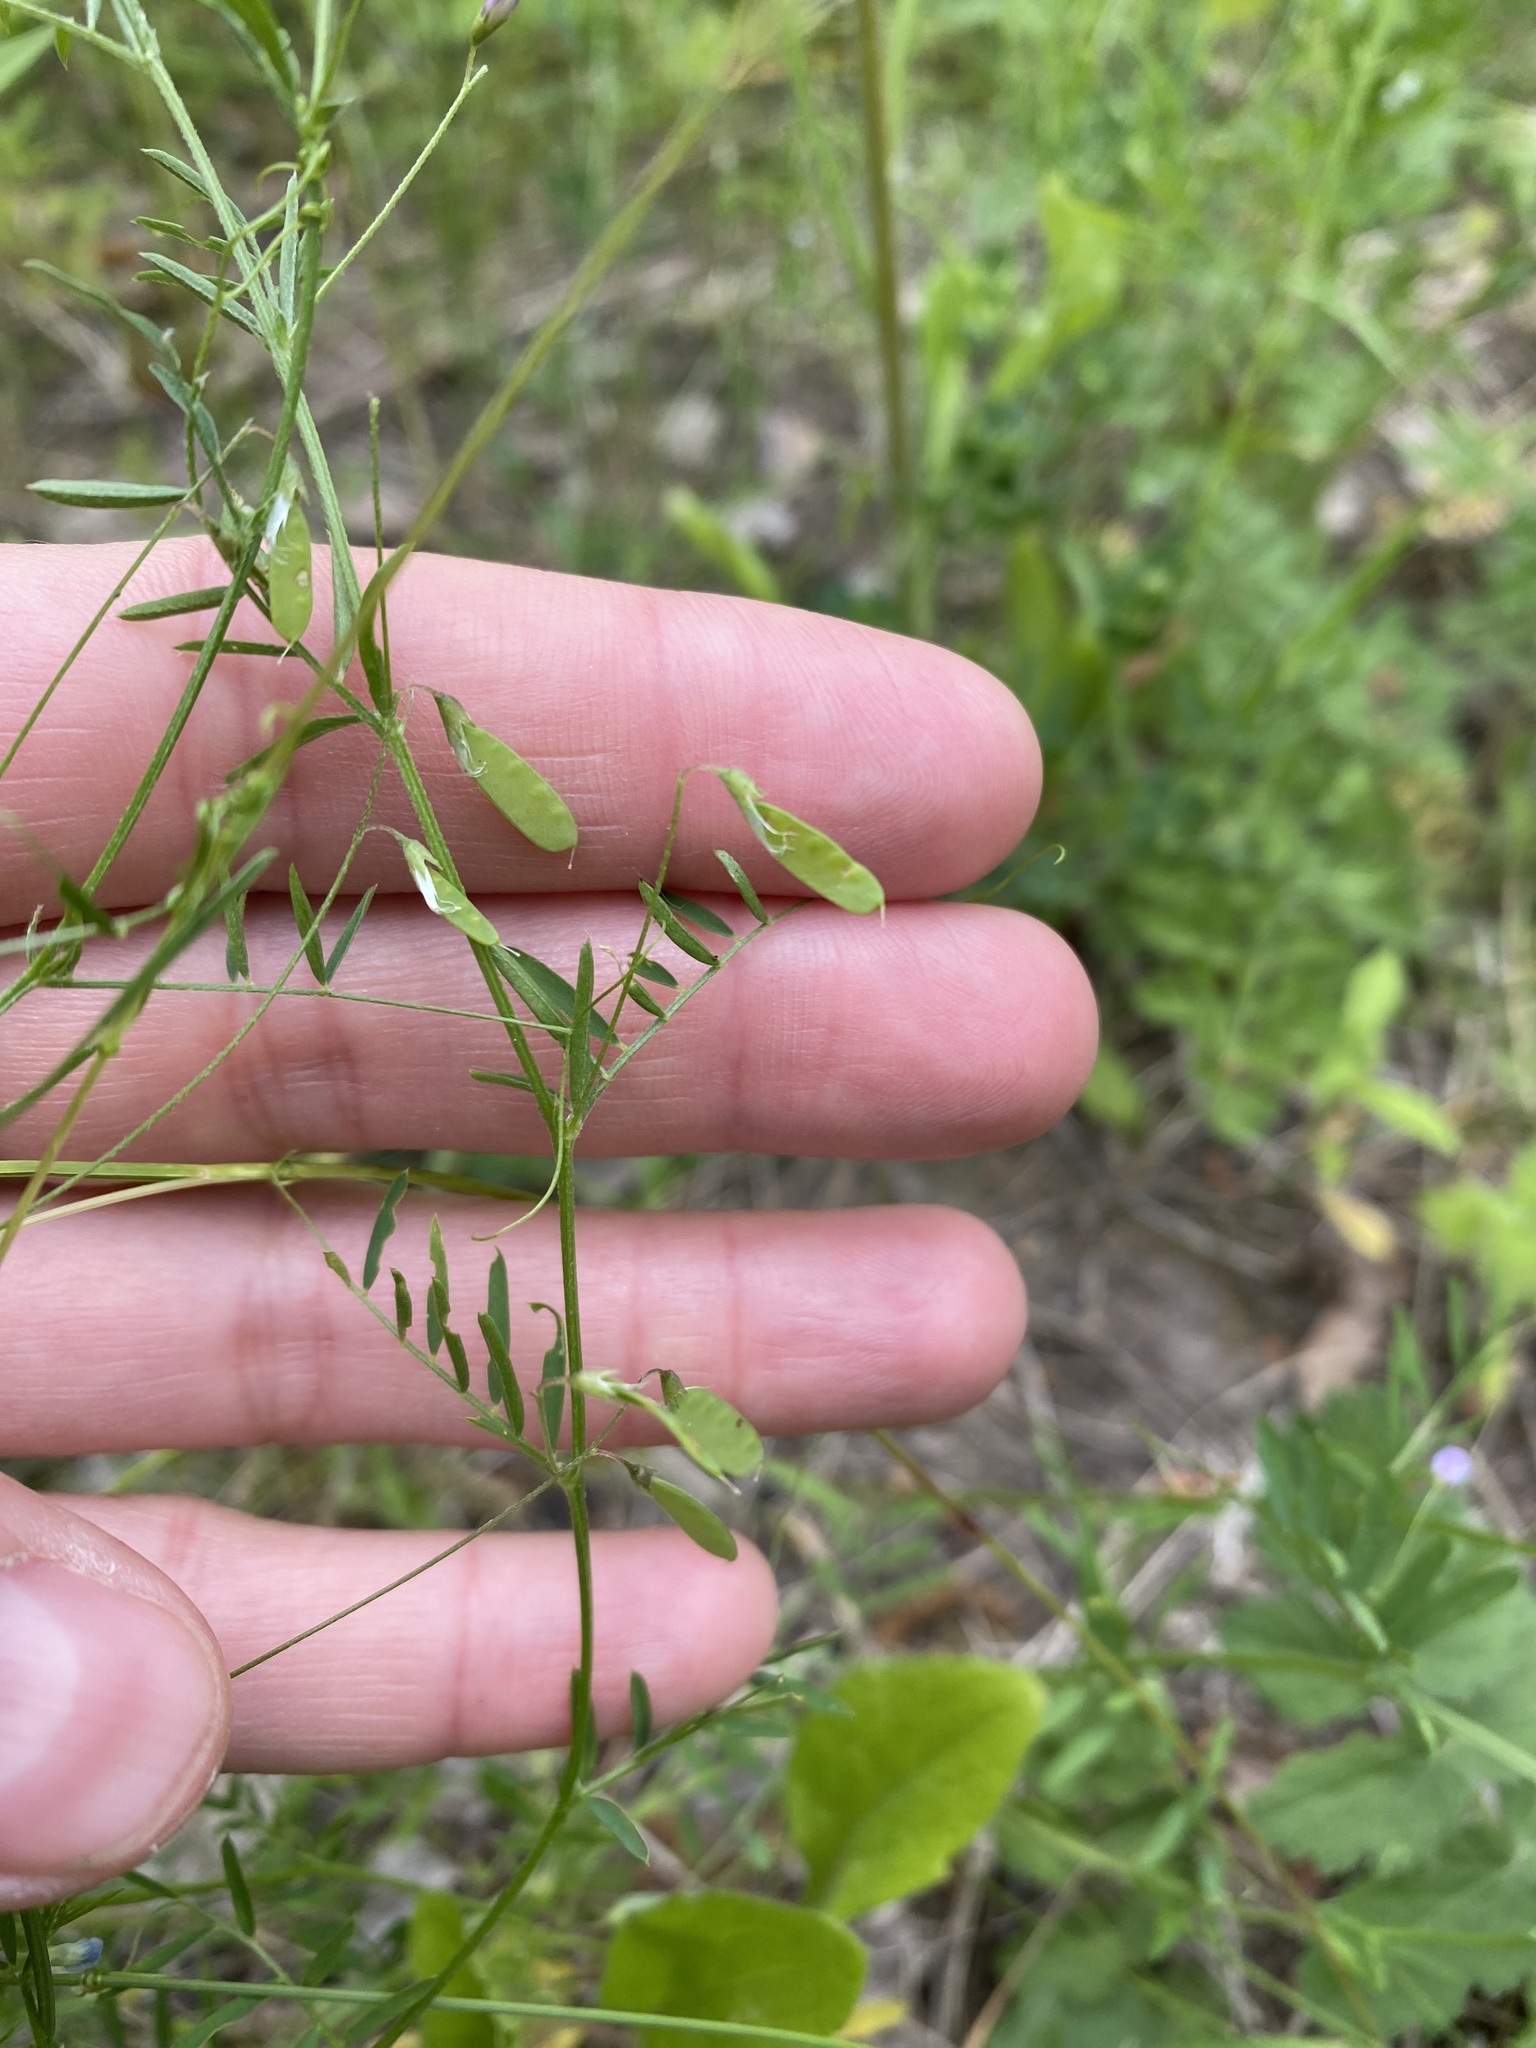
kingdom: Plantae
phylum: Tracheophyta
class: Magnoliopsida
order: Fabales
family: Fabaceae
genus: Vicia
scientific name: Vicia tetrasperma
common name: Smooth tare
